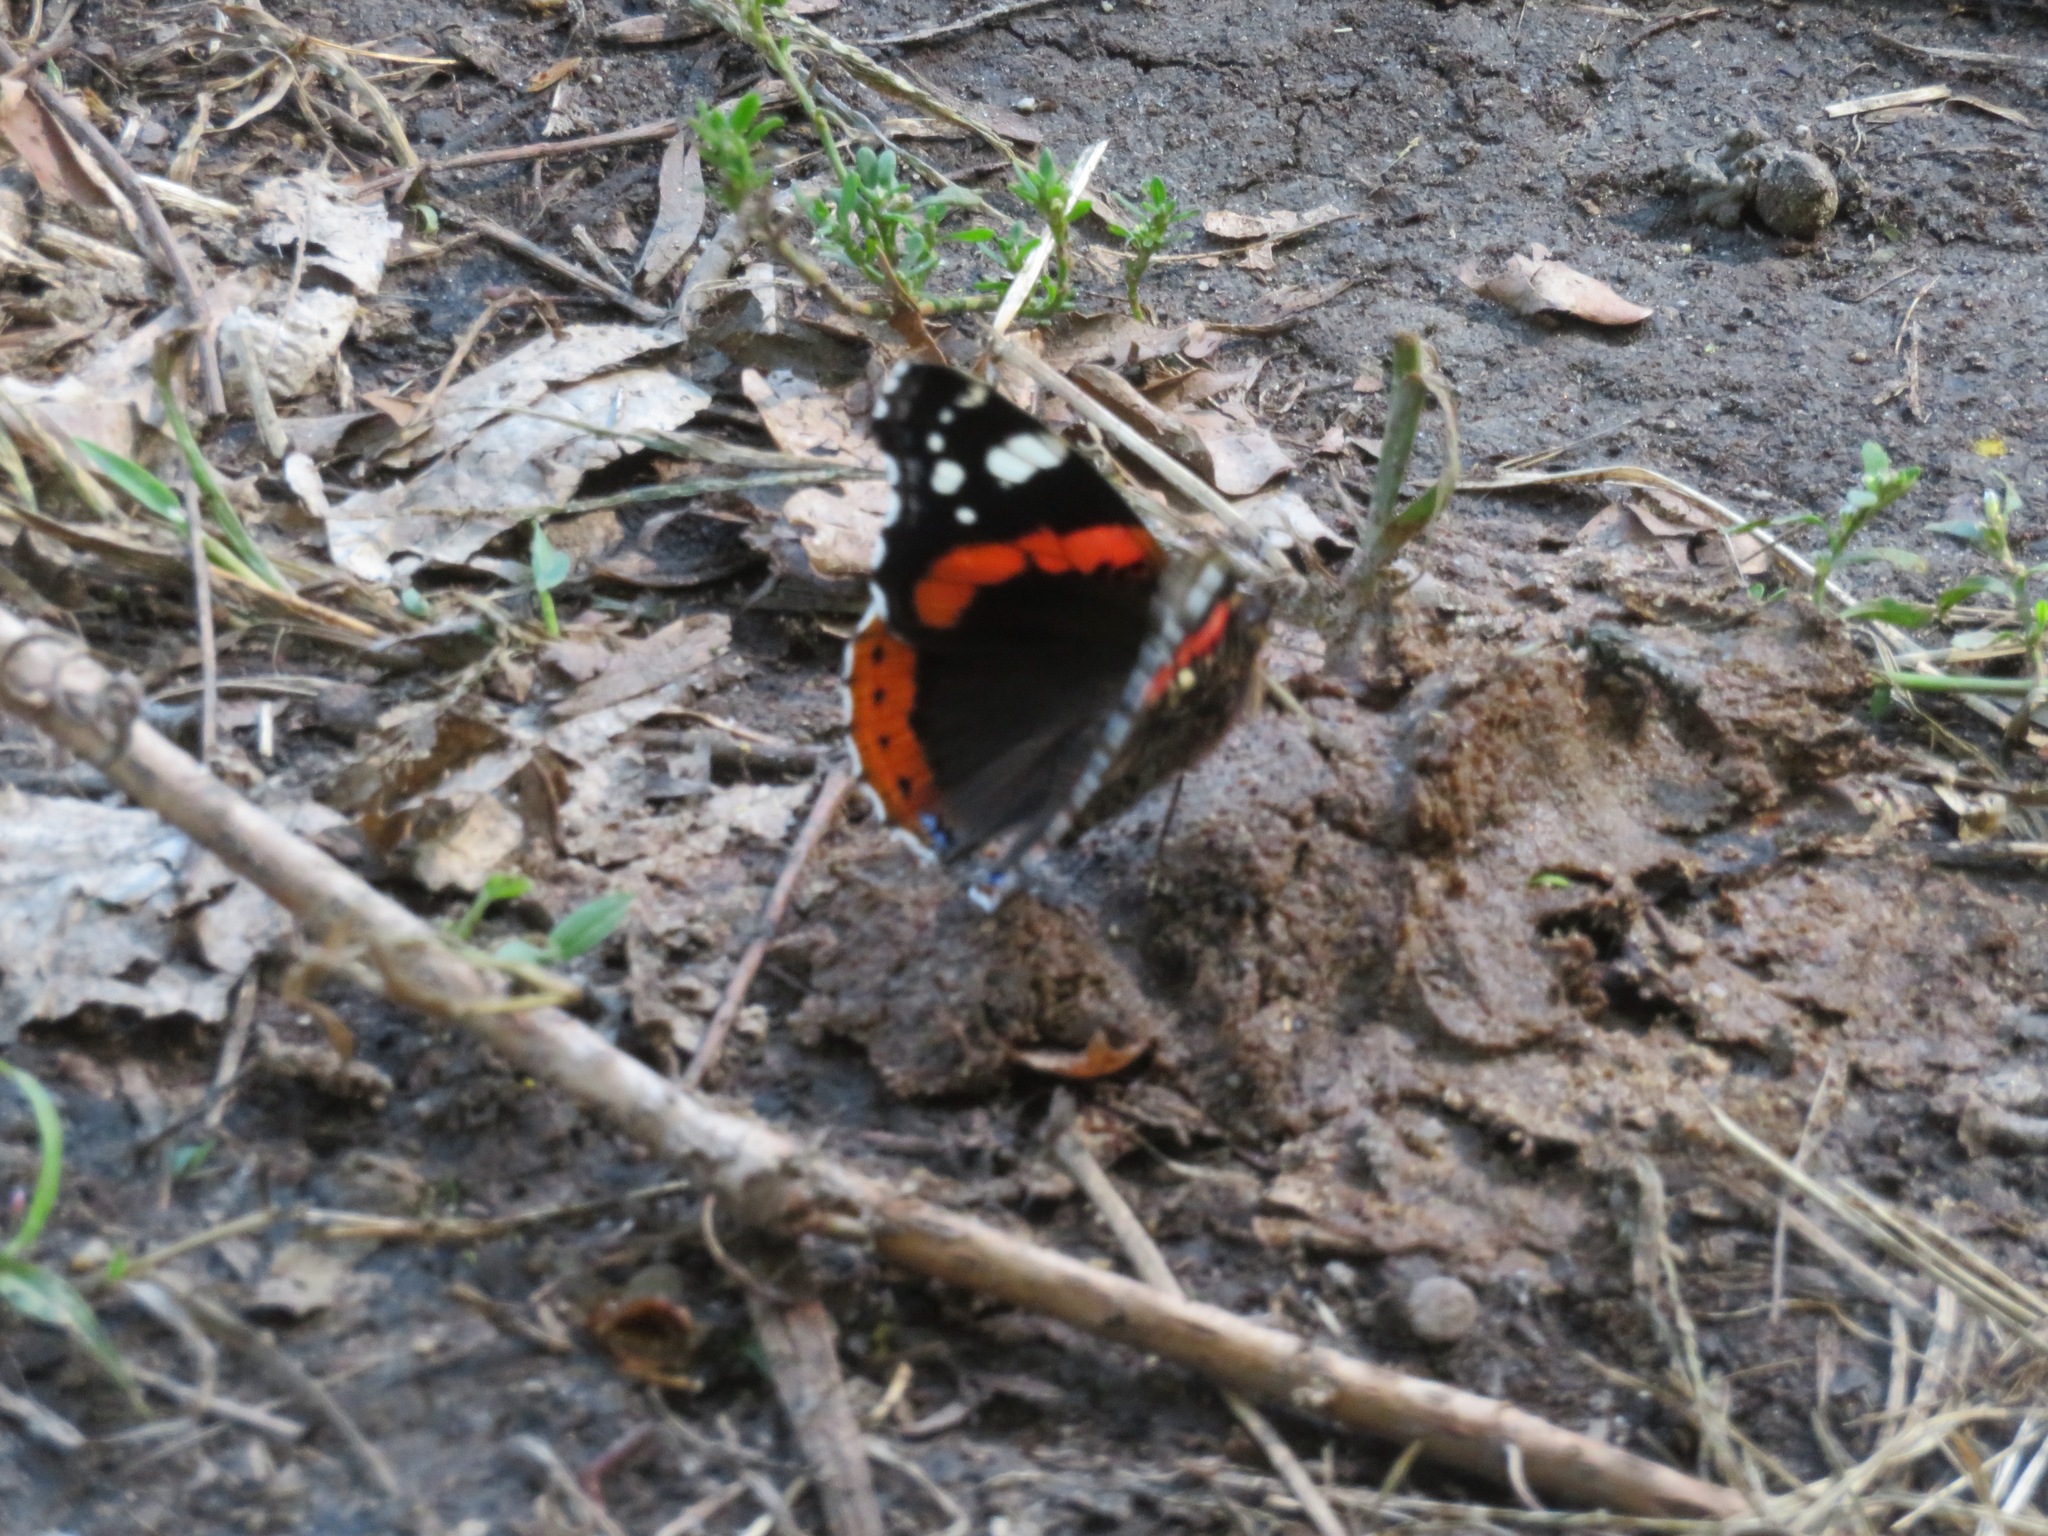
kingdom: Animalia
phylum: Arthropoda
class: Insecta
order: Lepidoptera
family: Nymphalidae
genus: Vanessa
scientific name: Vanessa atalanta
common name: Red admiral
